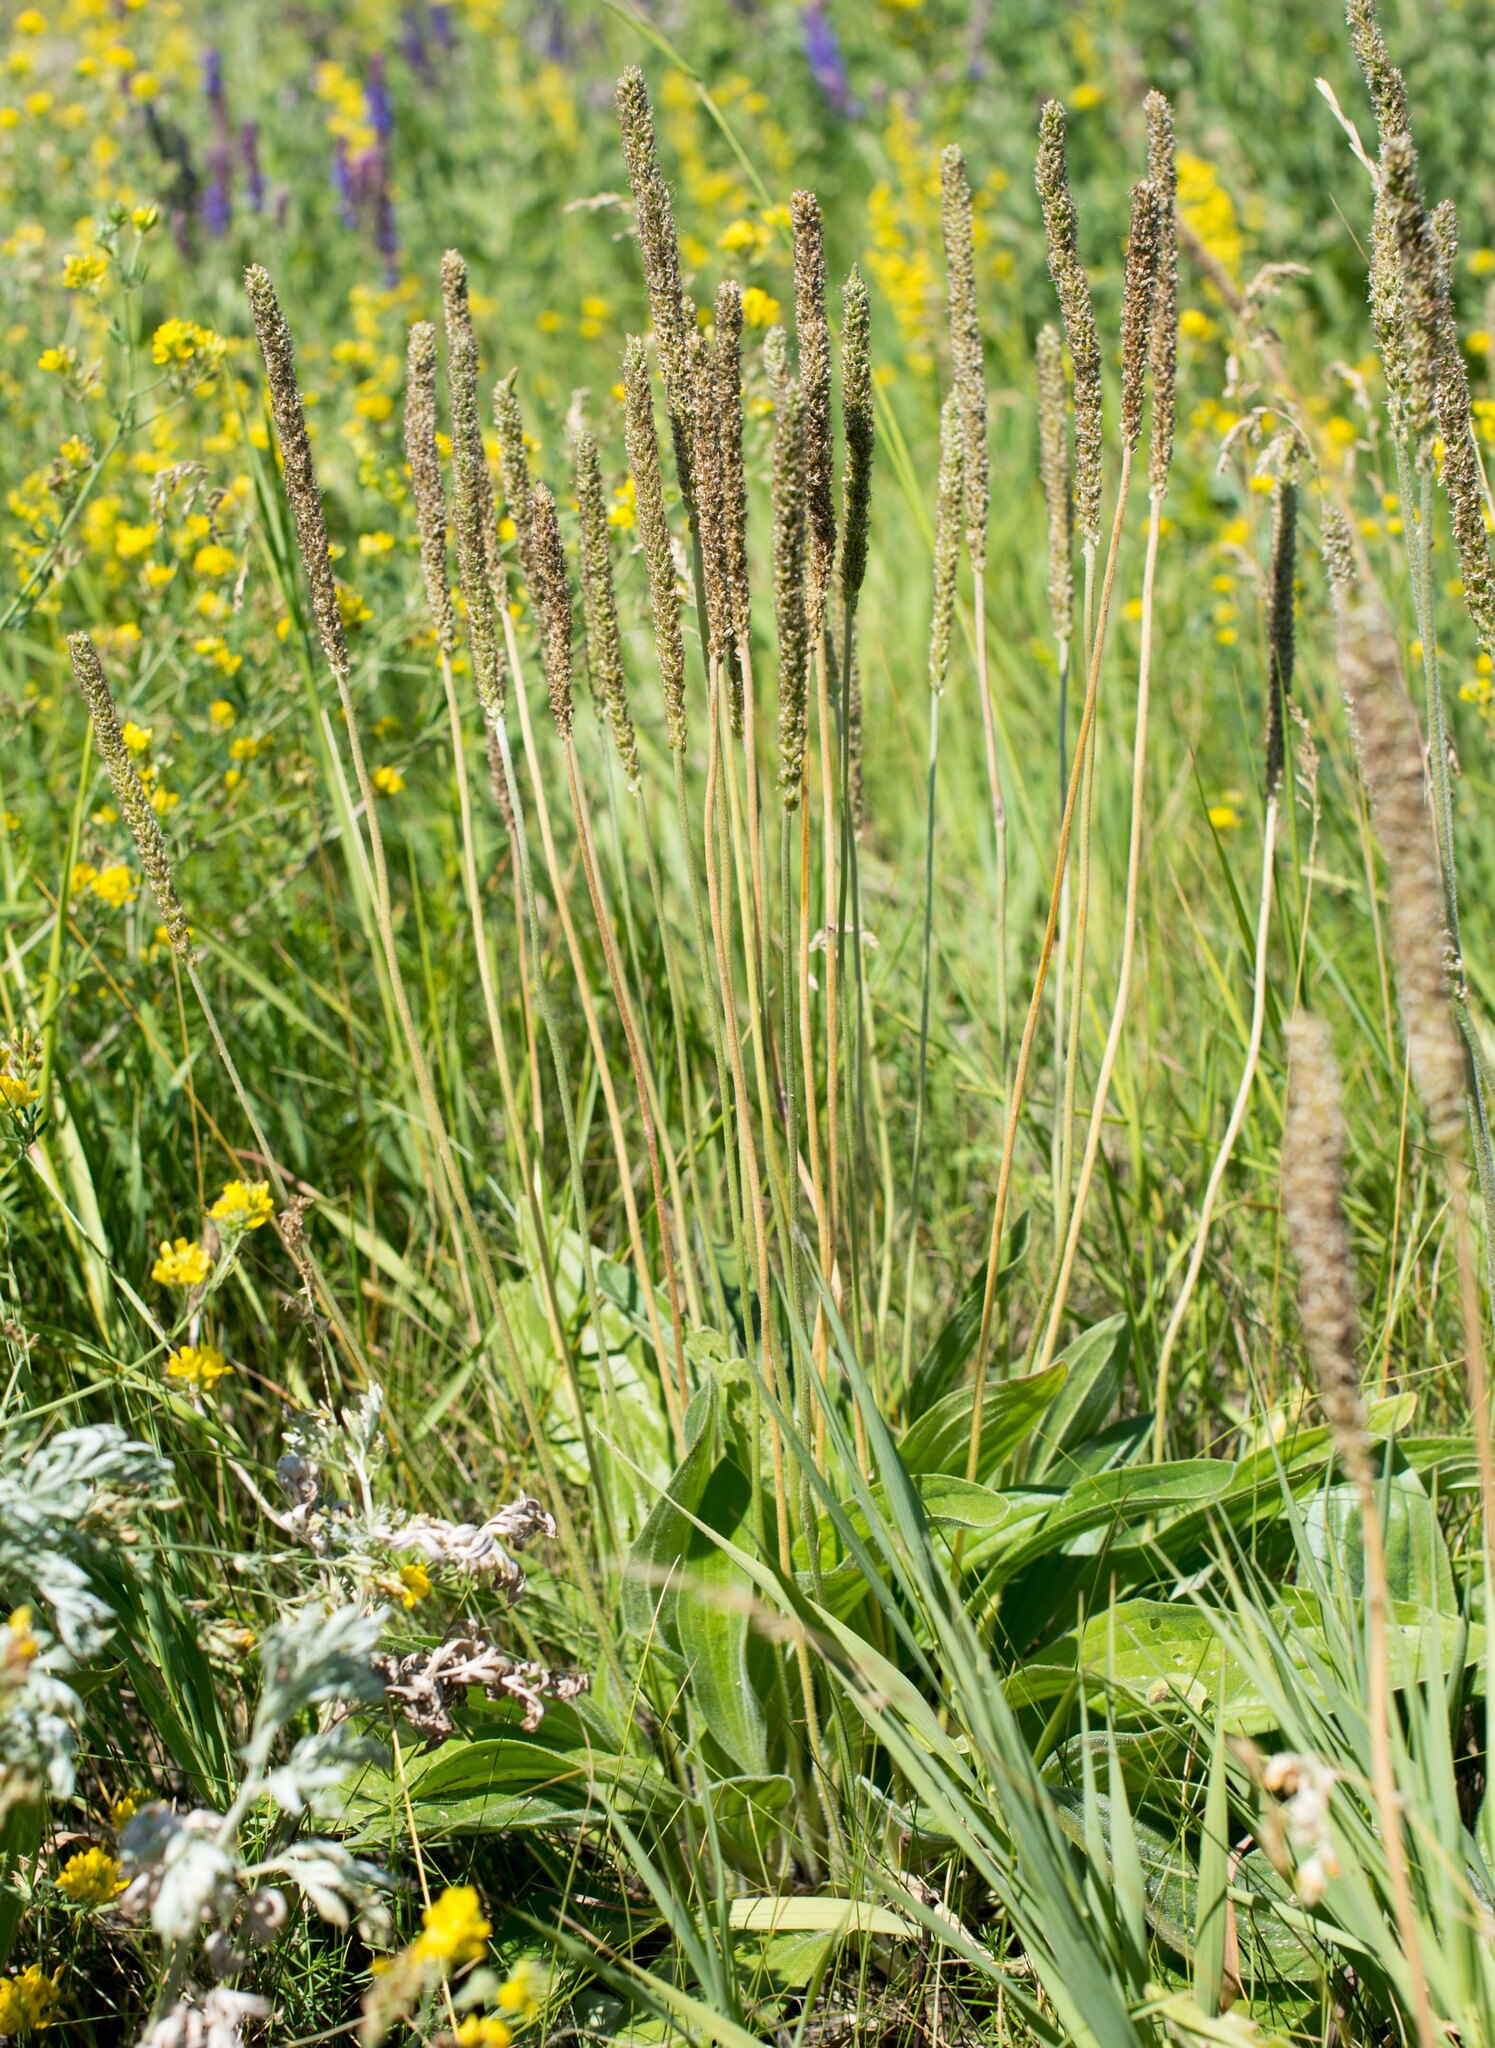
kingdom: Plantae
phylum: Tracheophyta
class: Magnoliopsida
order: Lamiales
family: Plantaginaceae
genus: Plantago
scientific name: Plantago cornuti
